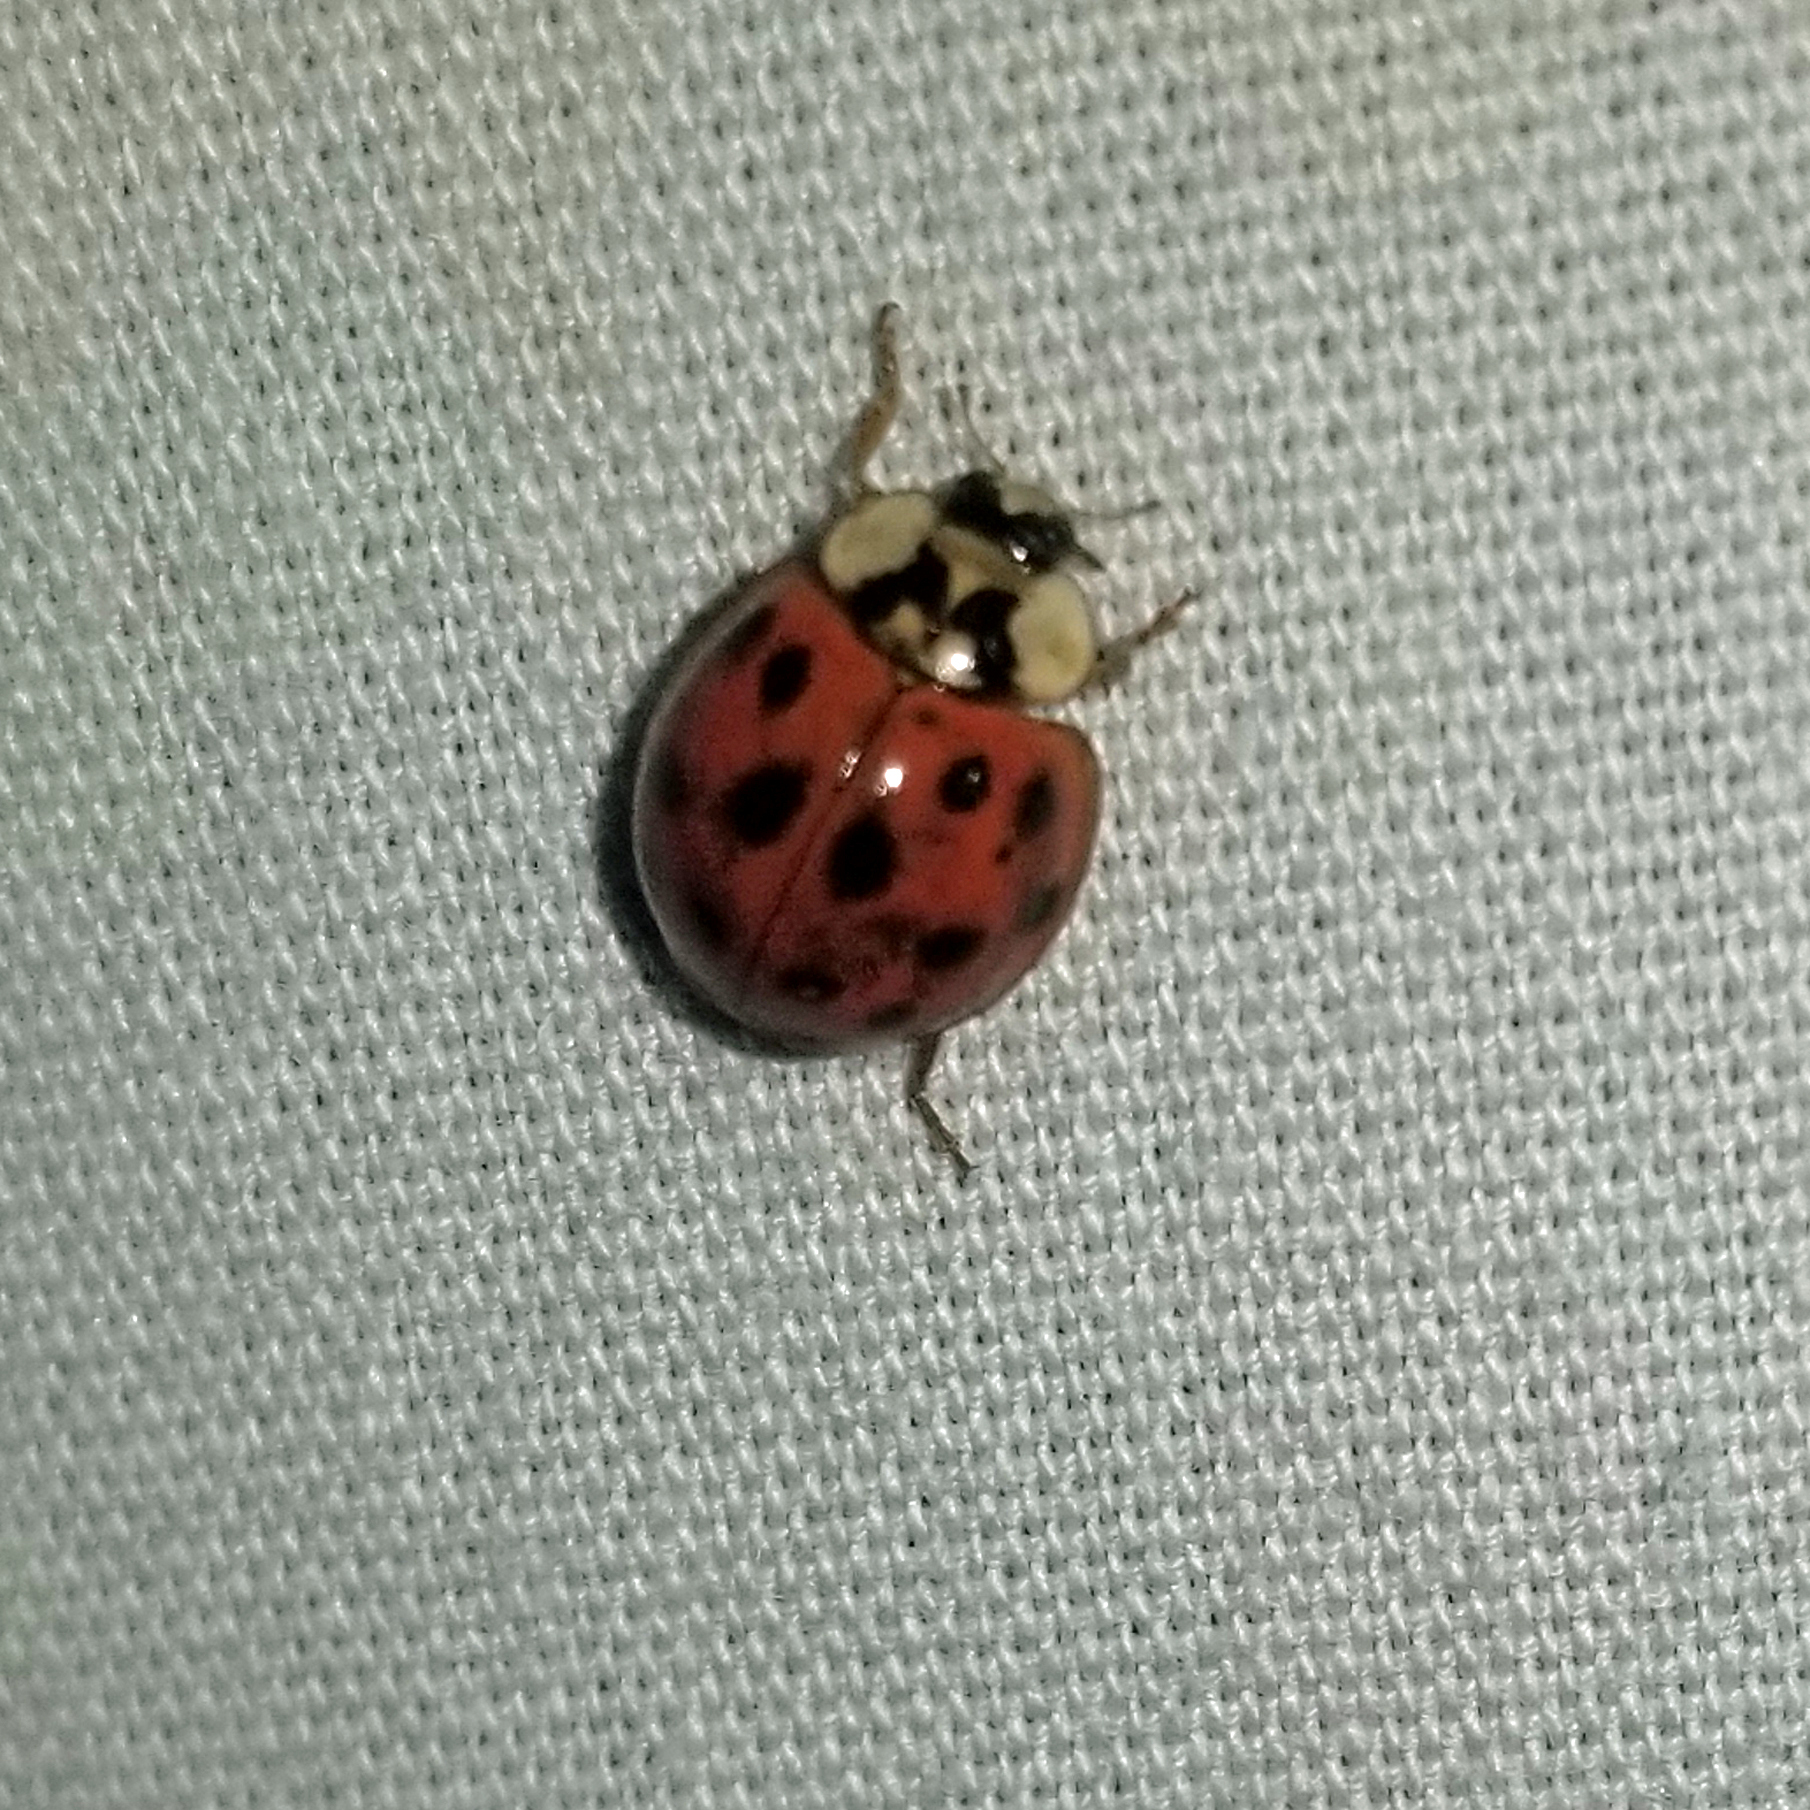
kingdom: Animalia
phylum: Arthropoda
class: Insecta
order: Coleoptera
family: Coccinellidae
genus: Harmonia
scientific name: Harmonia axyridis
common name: Harlequin ladybird
